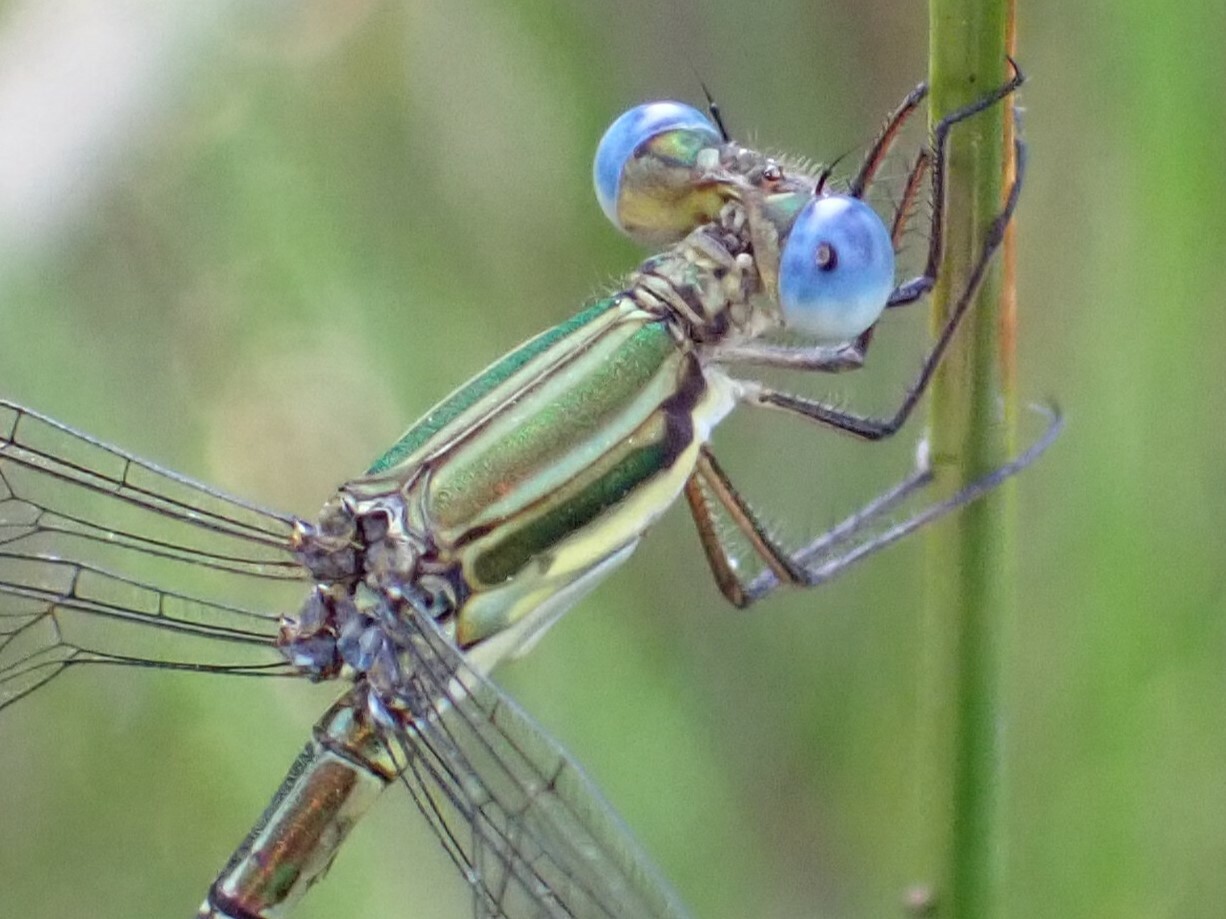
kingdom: Animalia
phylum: Arthropoda
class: Insecta
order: Odonata
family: Lestidae
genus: Lestes
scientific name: Lestes virgatus
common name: Smoky spreadwing
